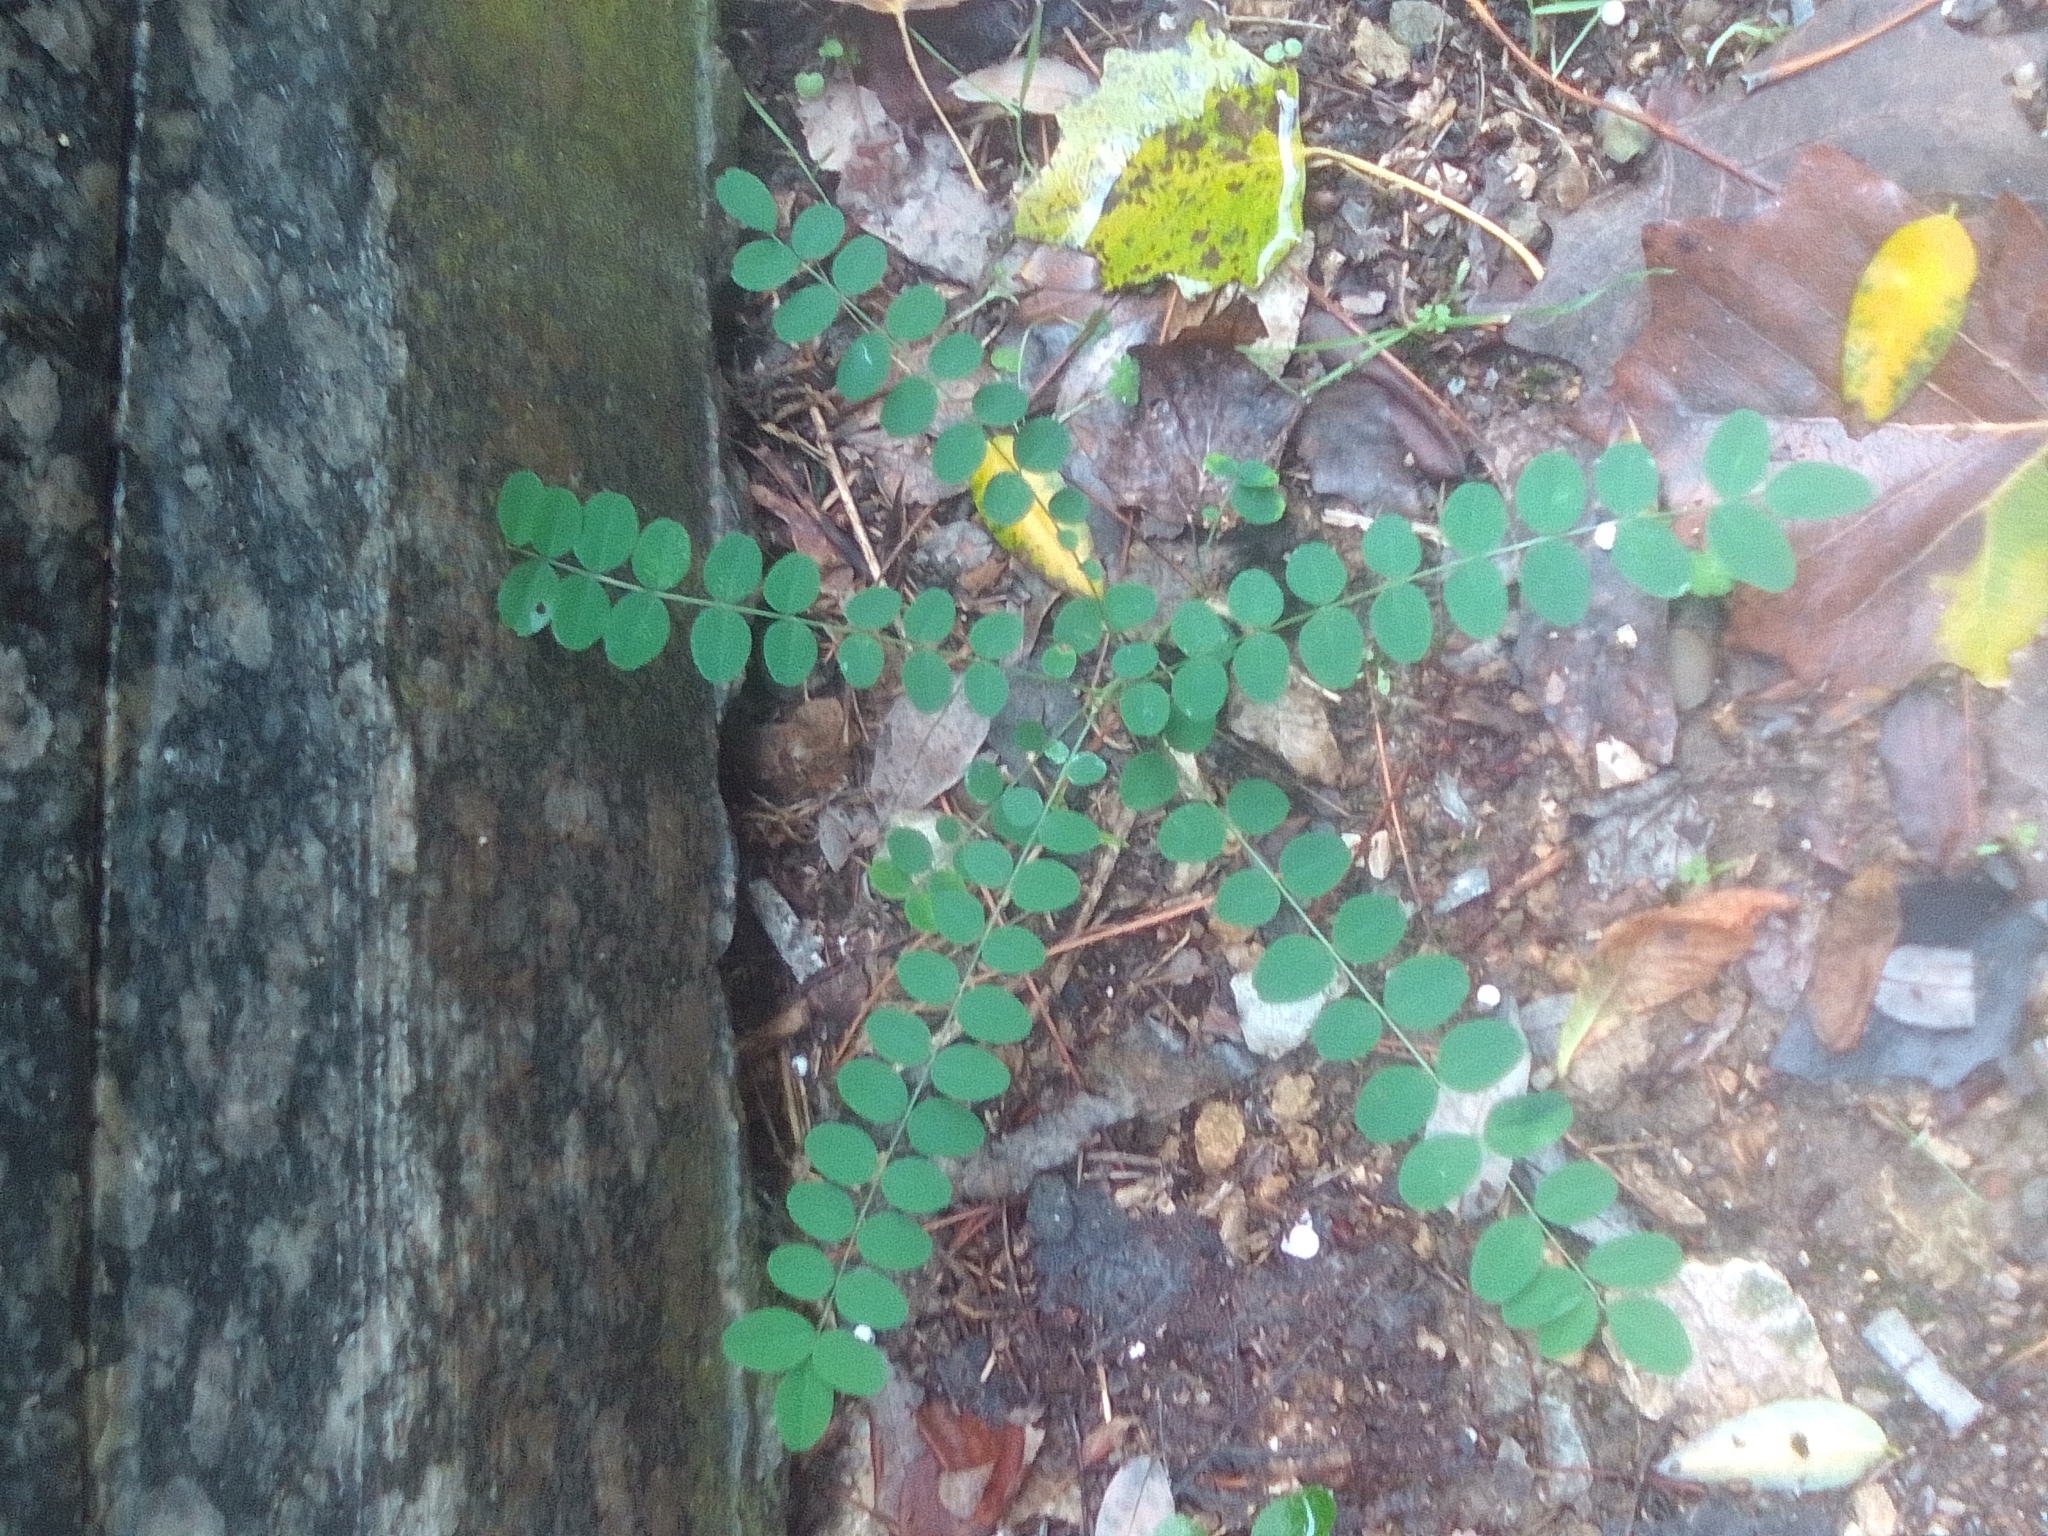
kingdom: Plantae
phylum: Tracheophyta
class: Magnoliopsida
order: Fabales
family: Fabaceae
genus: Robinia
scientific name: Robinia pseudoacacia
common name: Black locust
